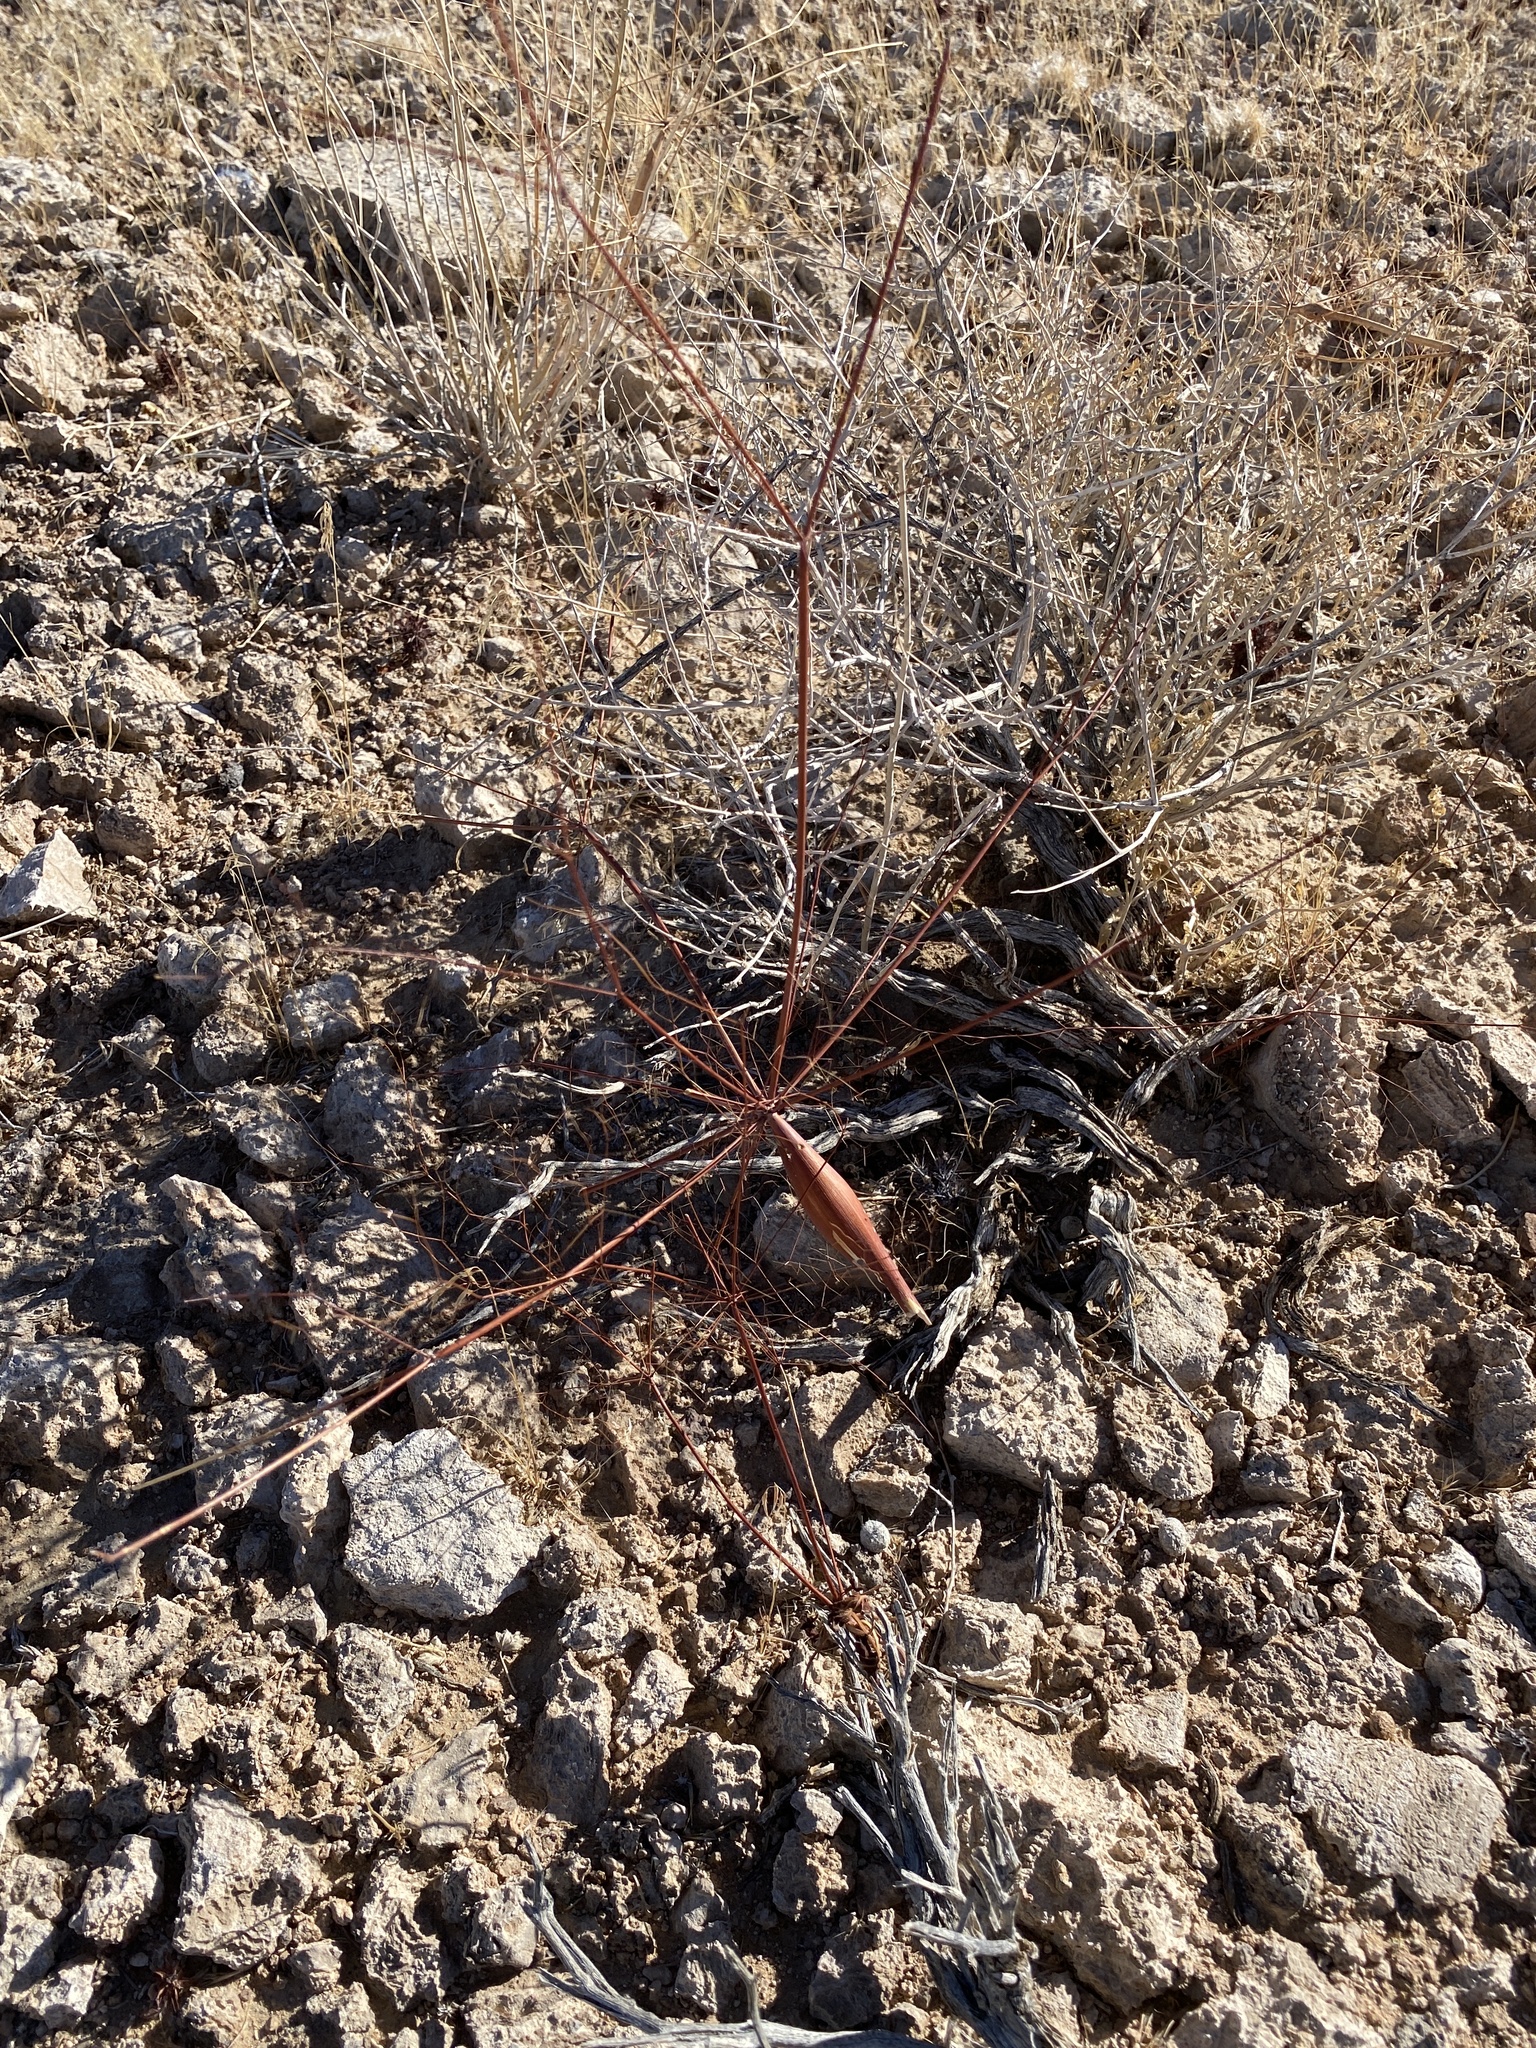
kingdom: Plantae
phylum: Tracheophyta
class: Magnoliopsida
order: Caryophyllales
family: Polygonaceae
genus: Eriogonum
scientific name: Eriogonum trichopes
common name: Little desert trumpet
